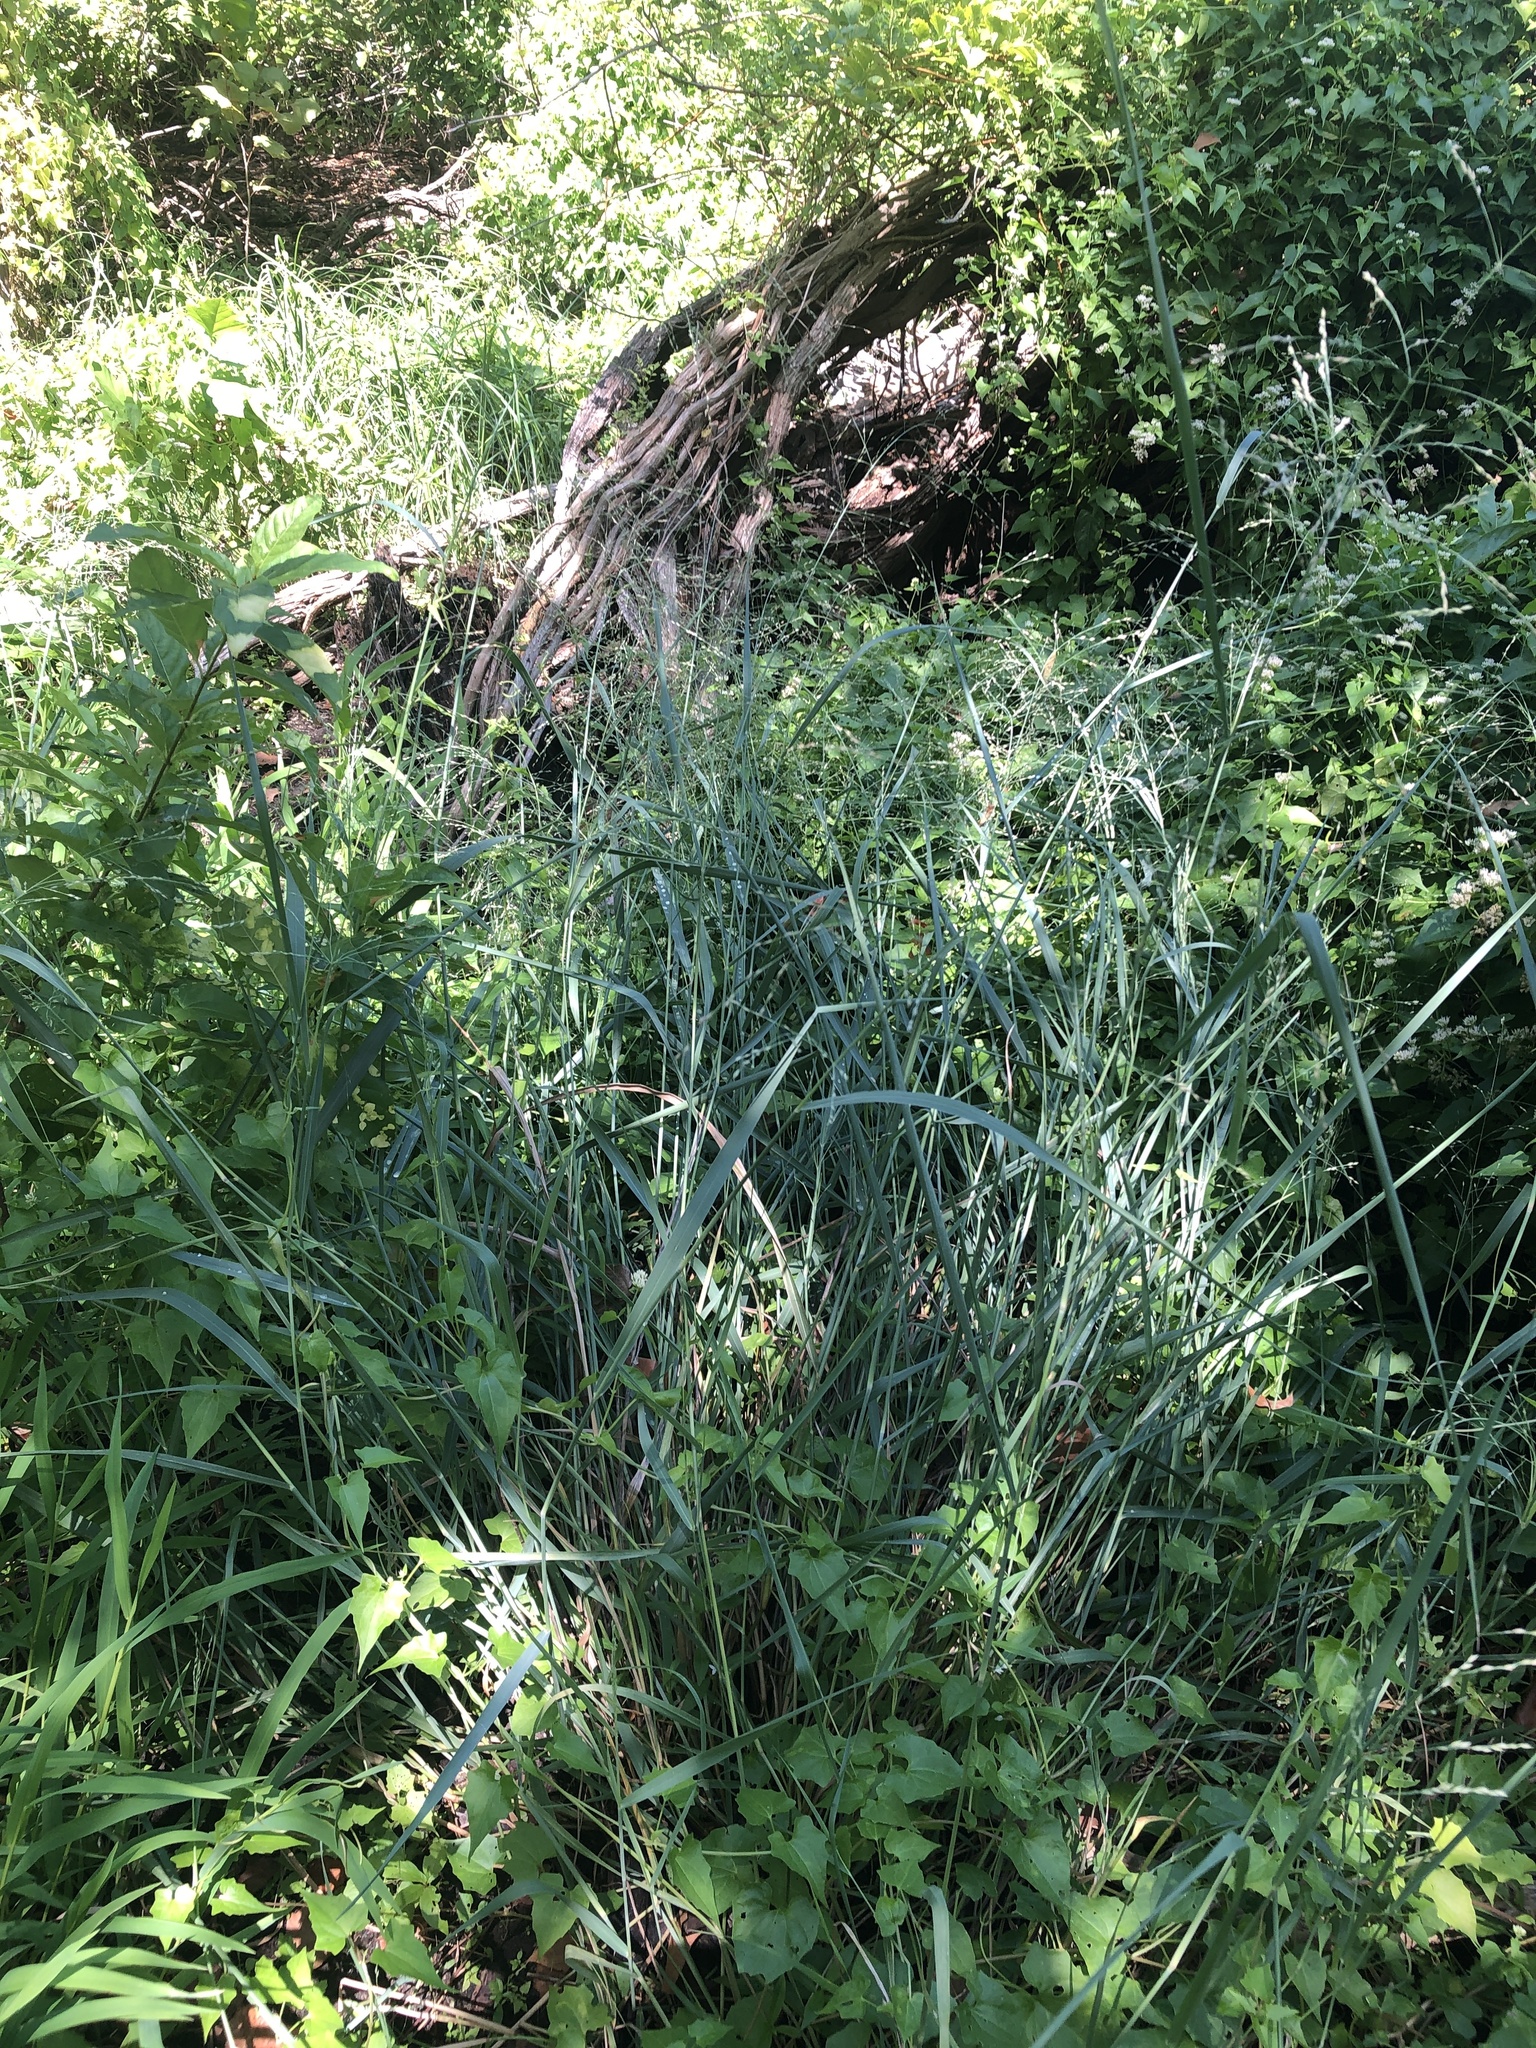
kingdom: Plantae
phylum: Tracheophyta
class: Liliopsida
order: Poales
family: Poaceae
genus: Panicum
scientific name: Panicum virgatum
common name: Switchgrass
